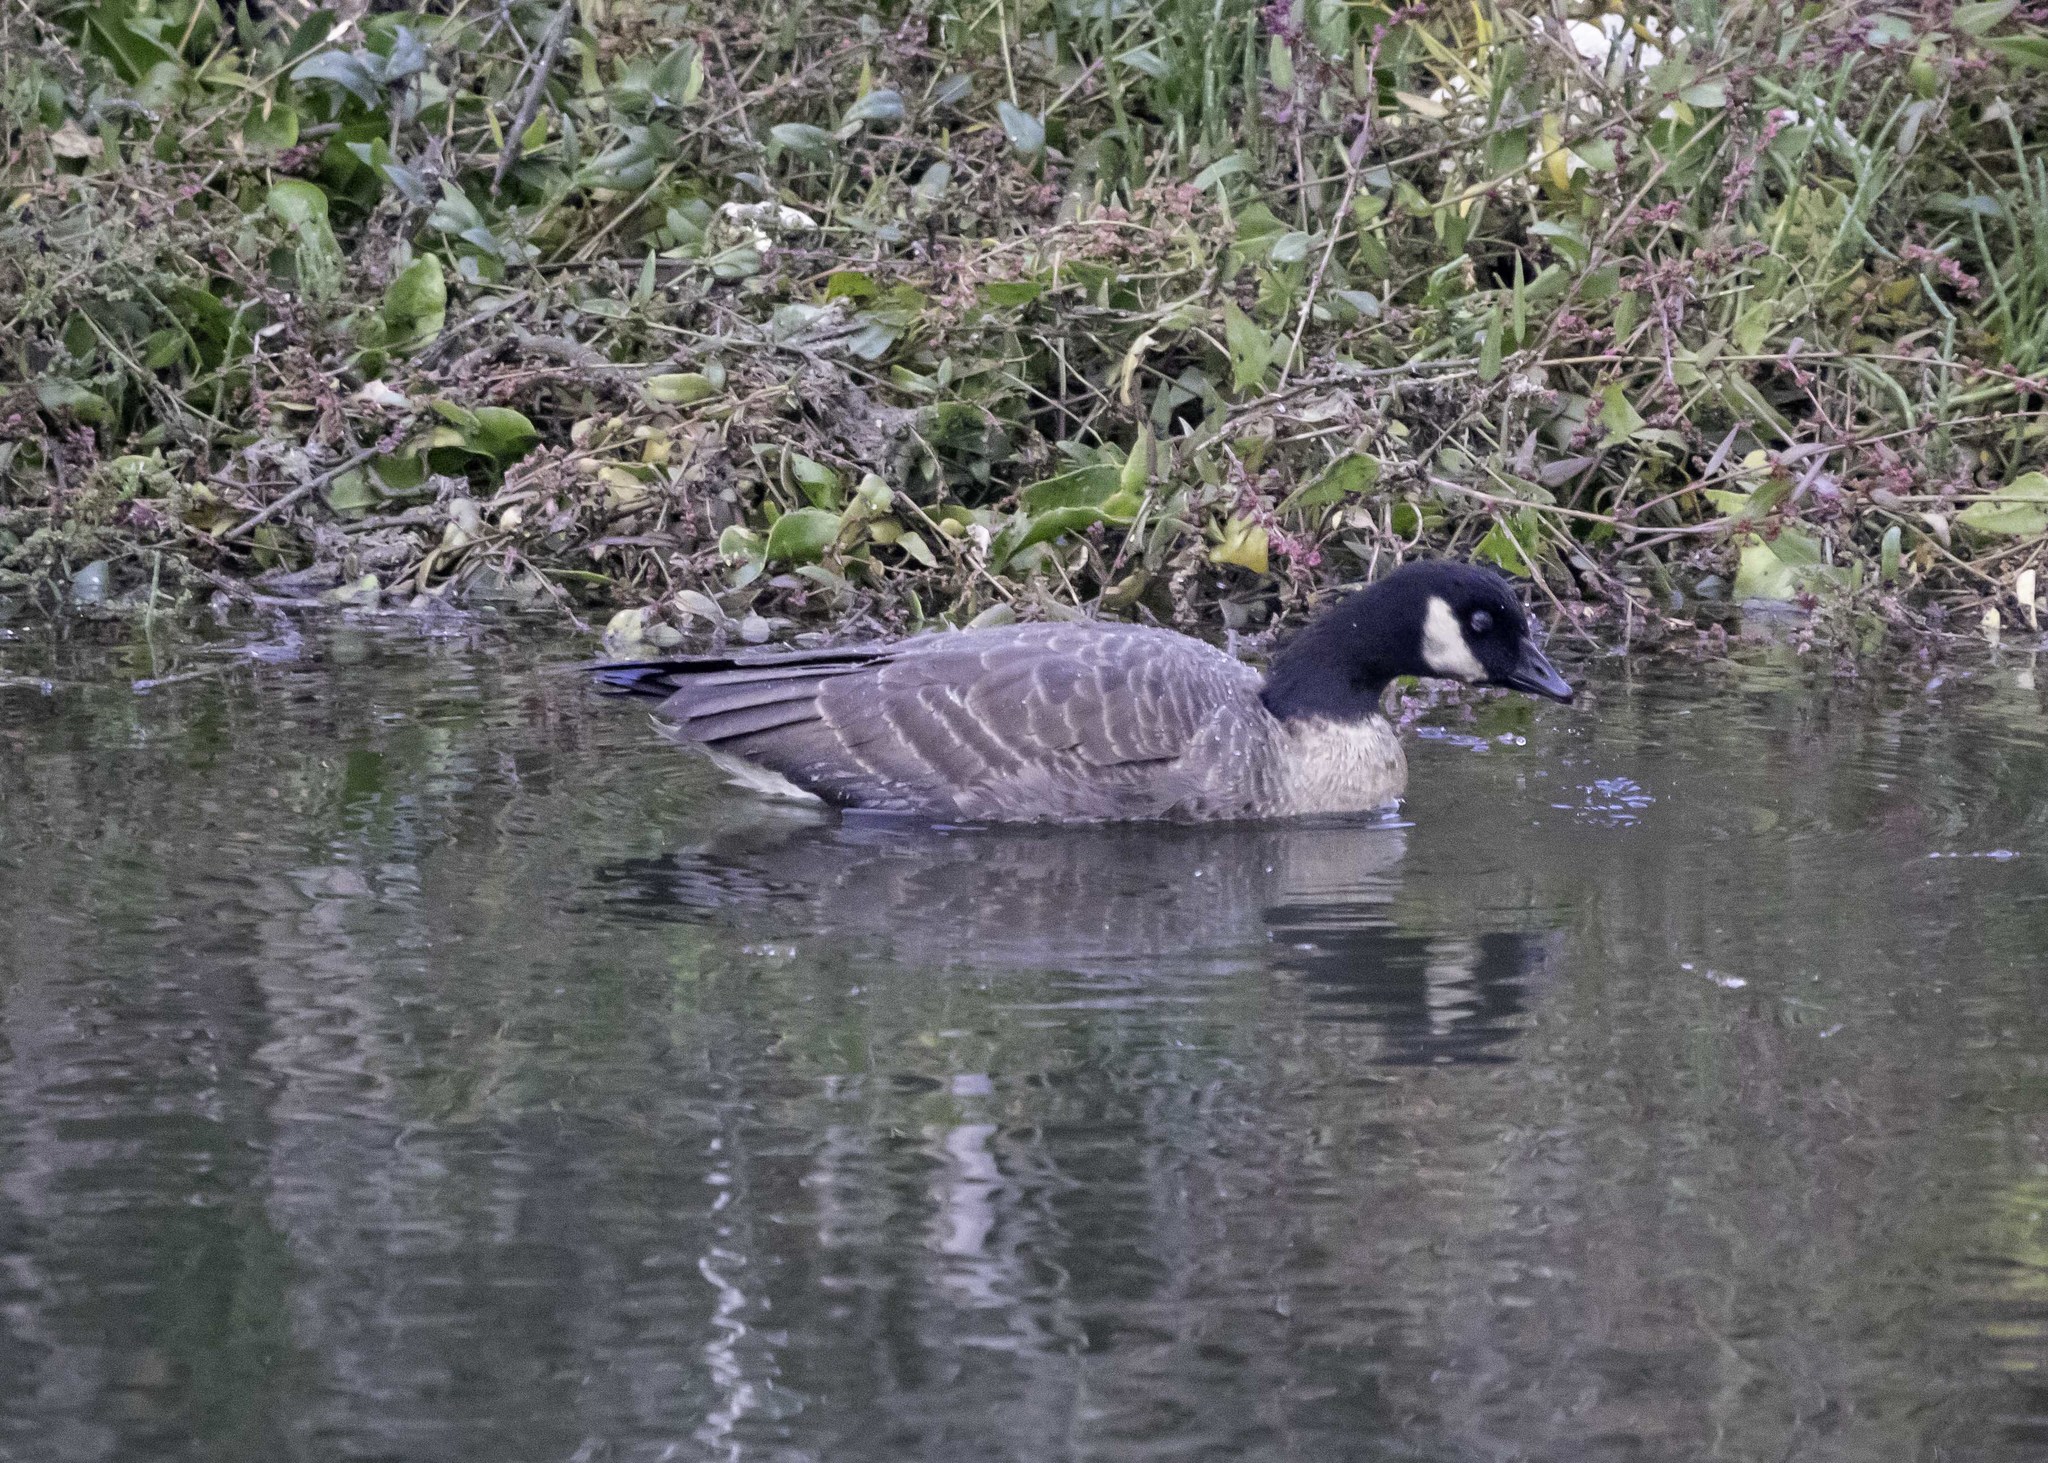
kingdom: Animalia
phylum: Chordata
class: Aves
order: Anseriformes
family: Anatidae
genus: Branta
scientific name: Branta hutchinsii
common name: Cackling goose
